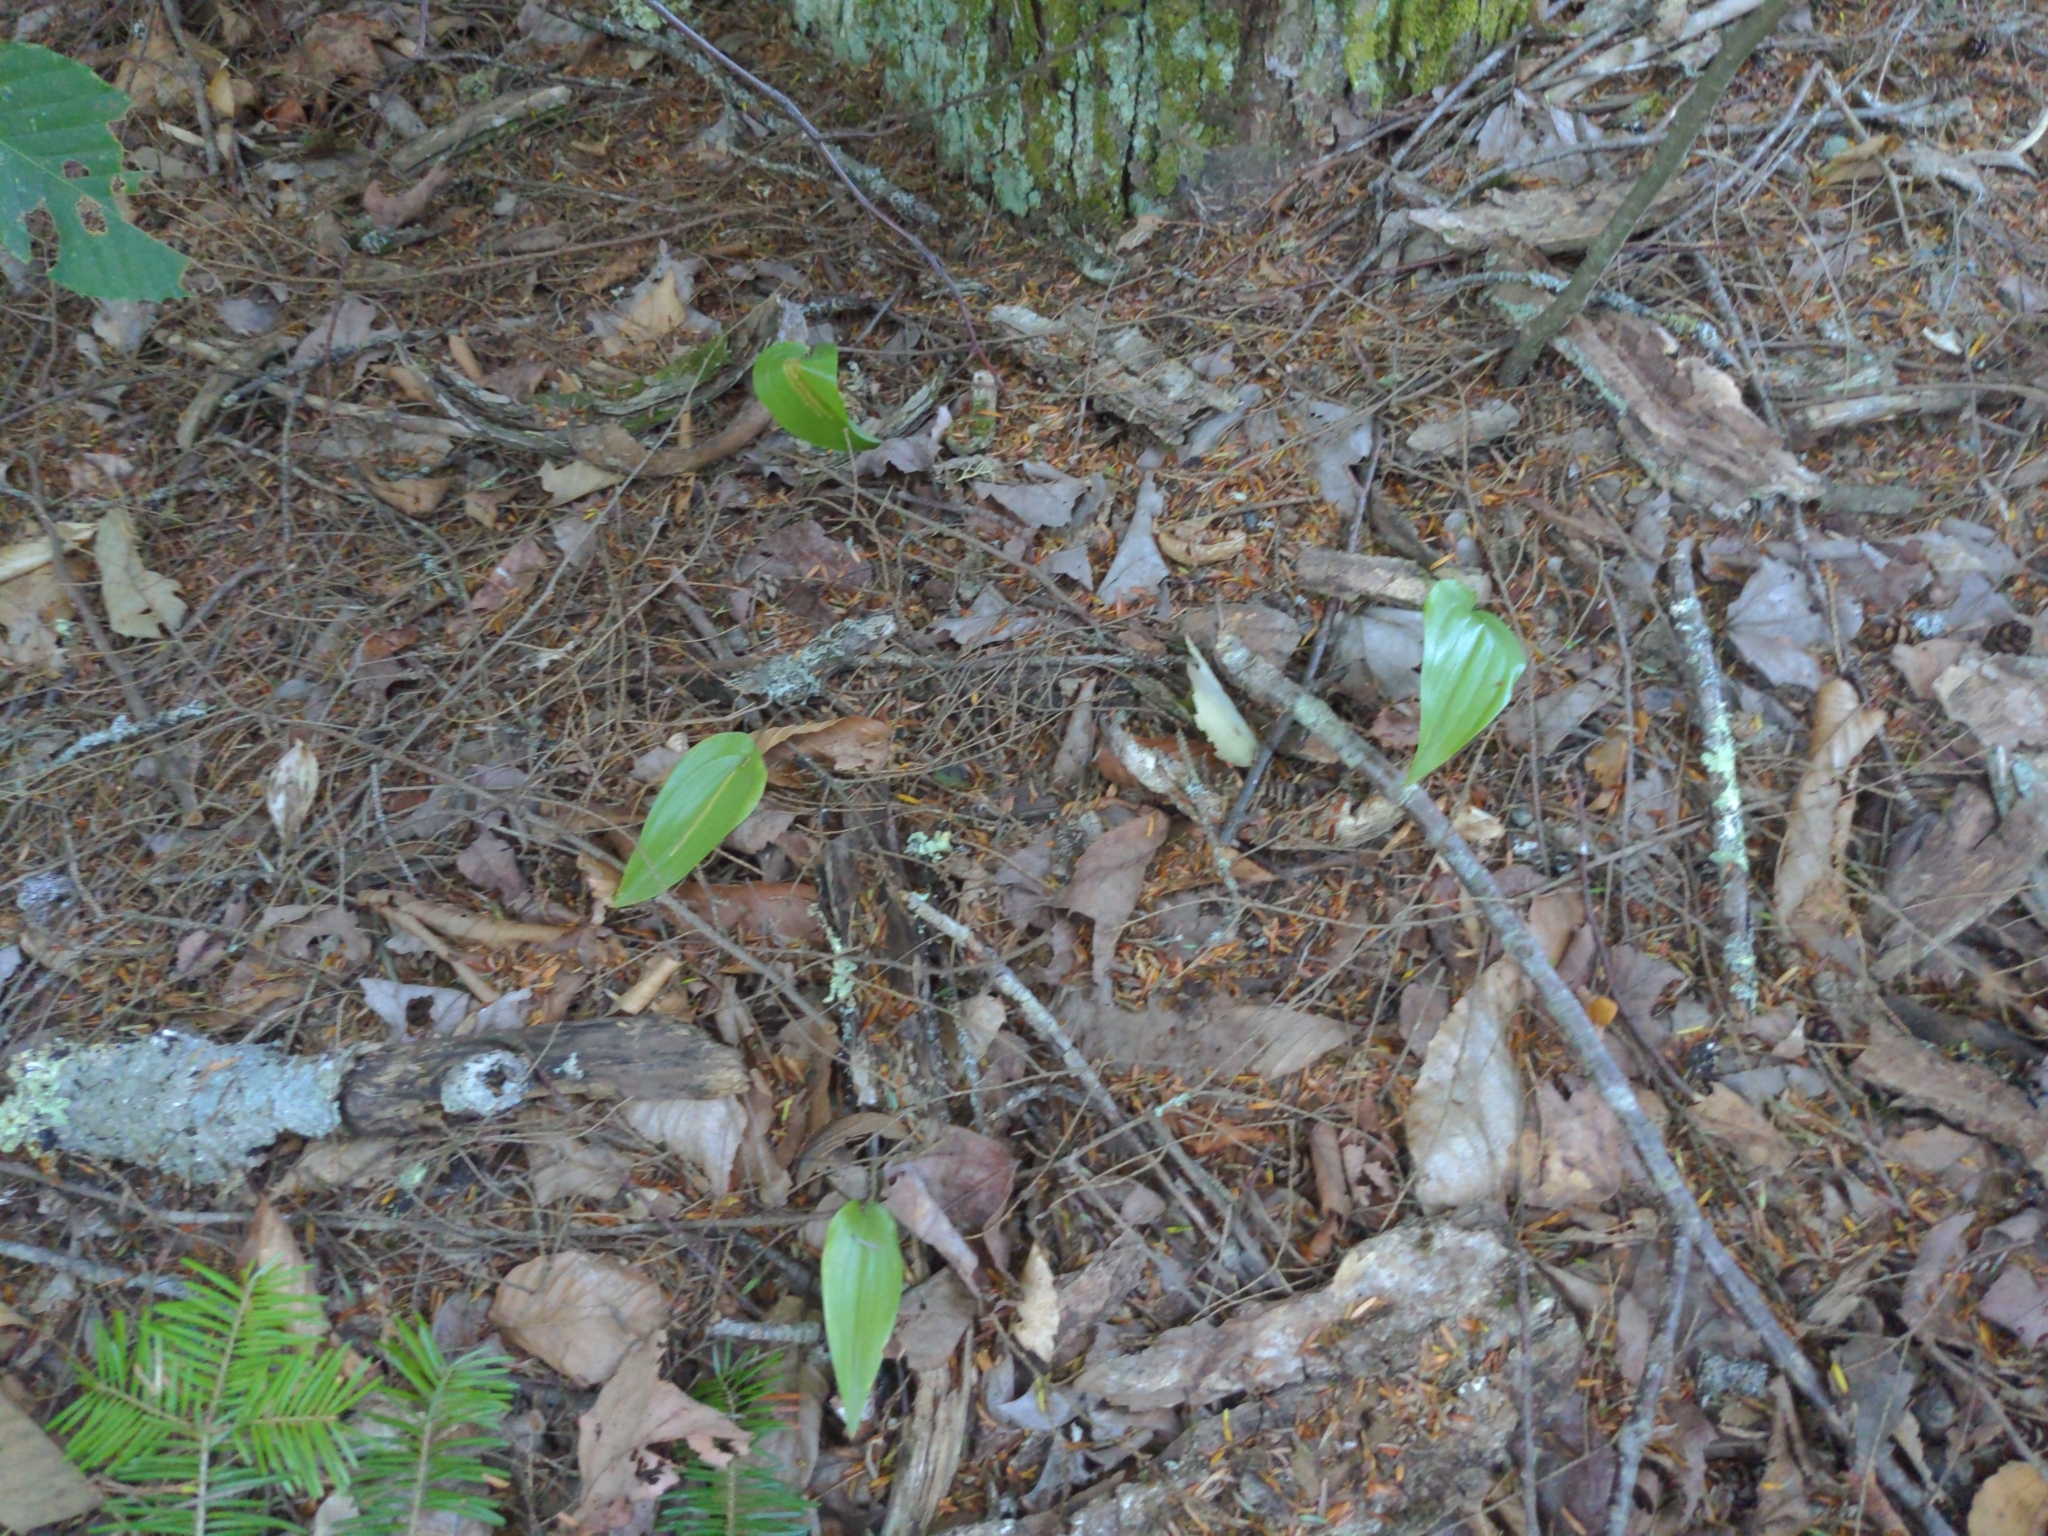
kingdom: Plantae
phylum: Tracheophyta
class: Liliopsida
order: Asparagales
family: Asparagaceae
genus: Maianthemum
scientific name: Maianthemum canadense
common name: False lily-of-the-valley
